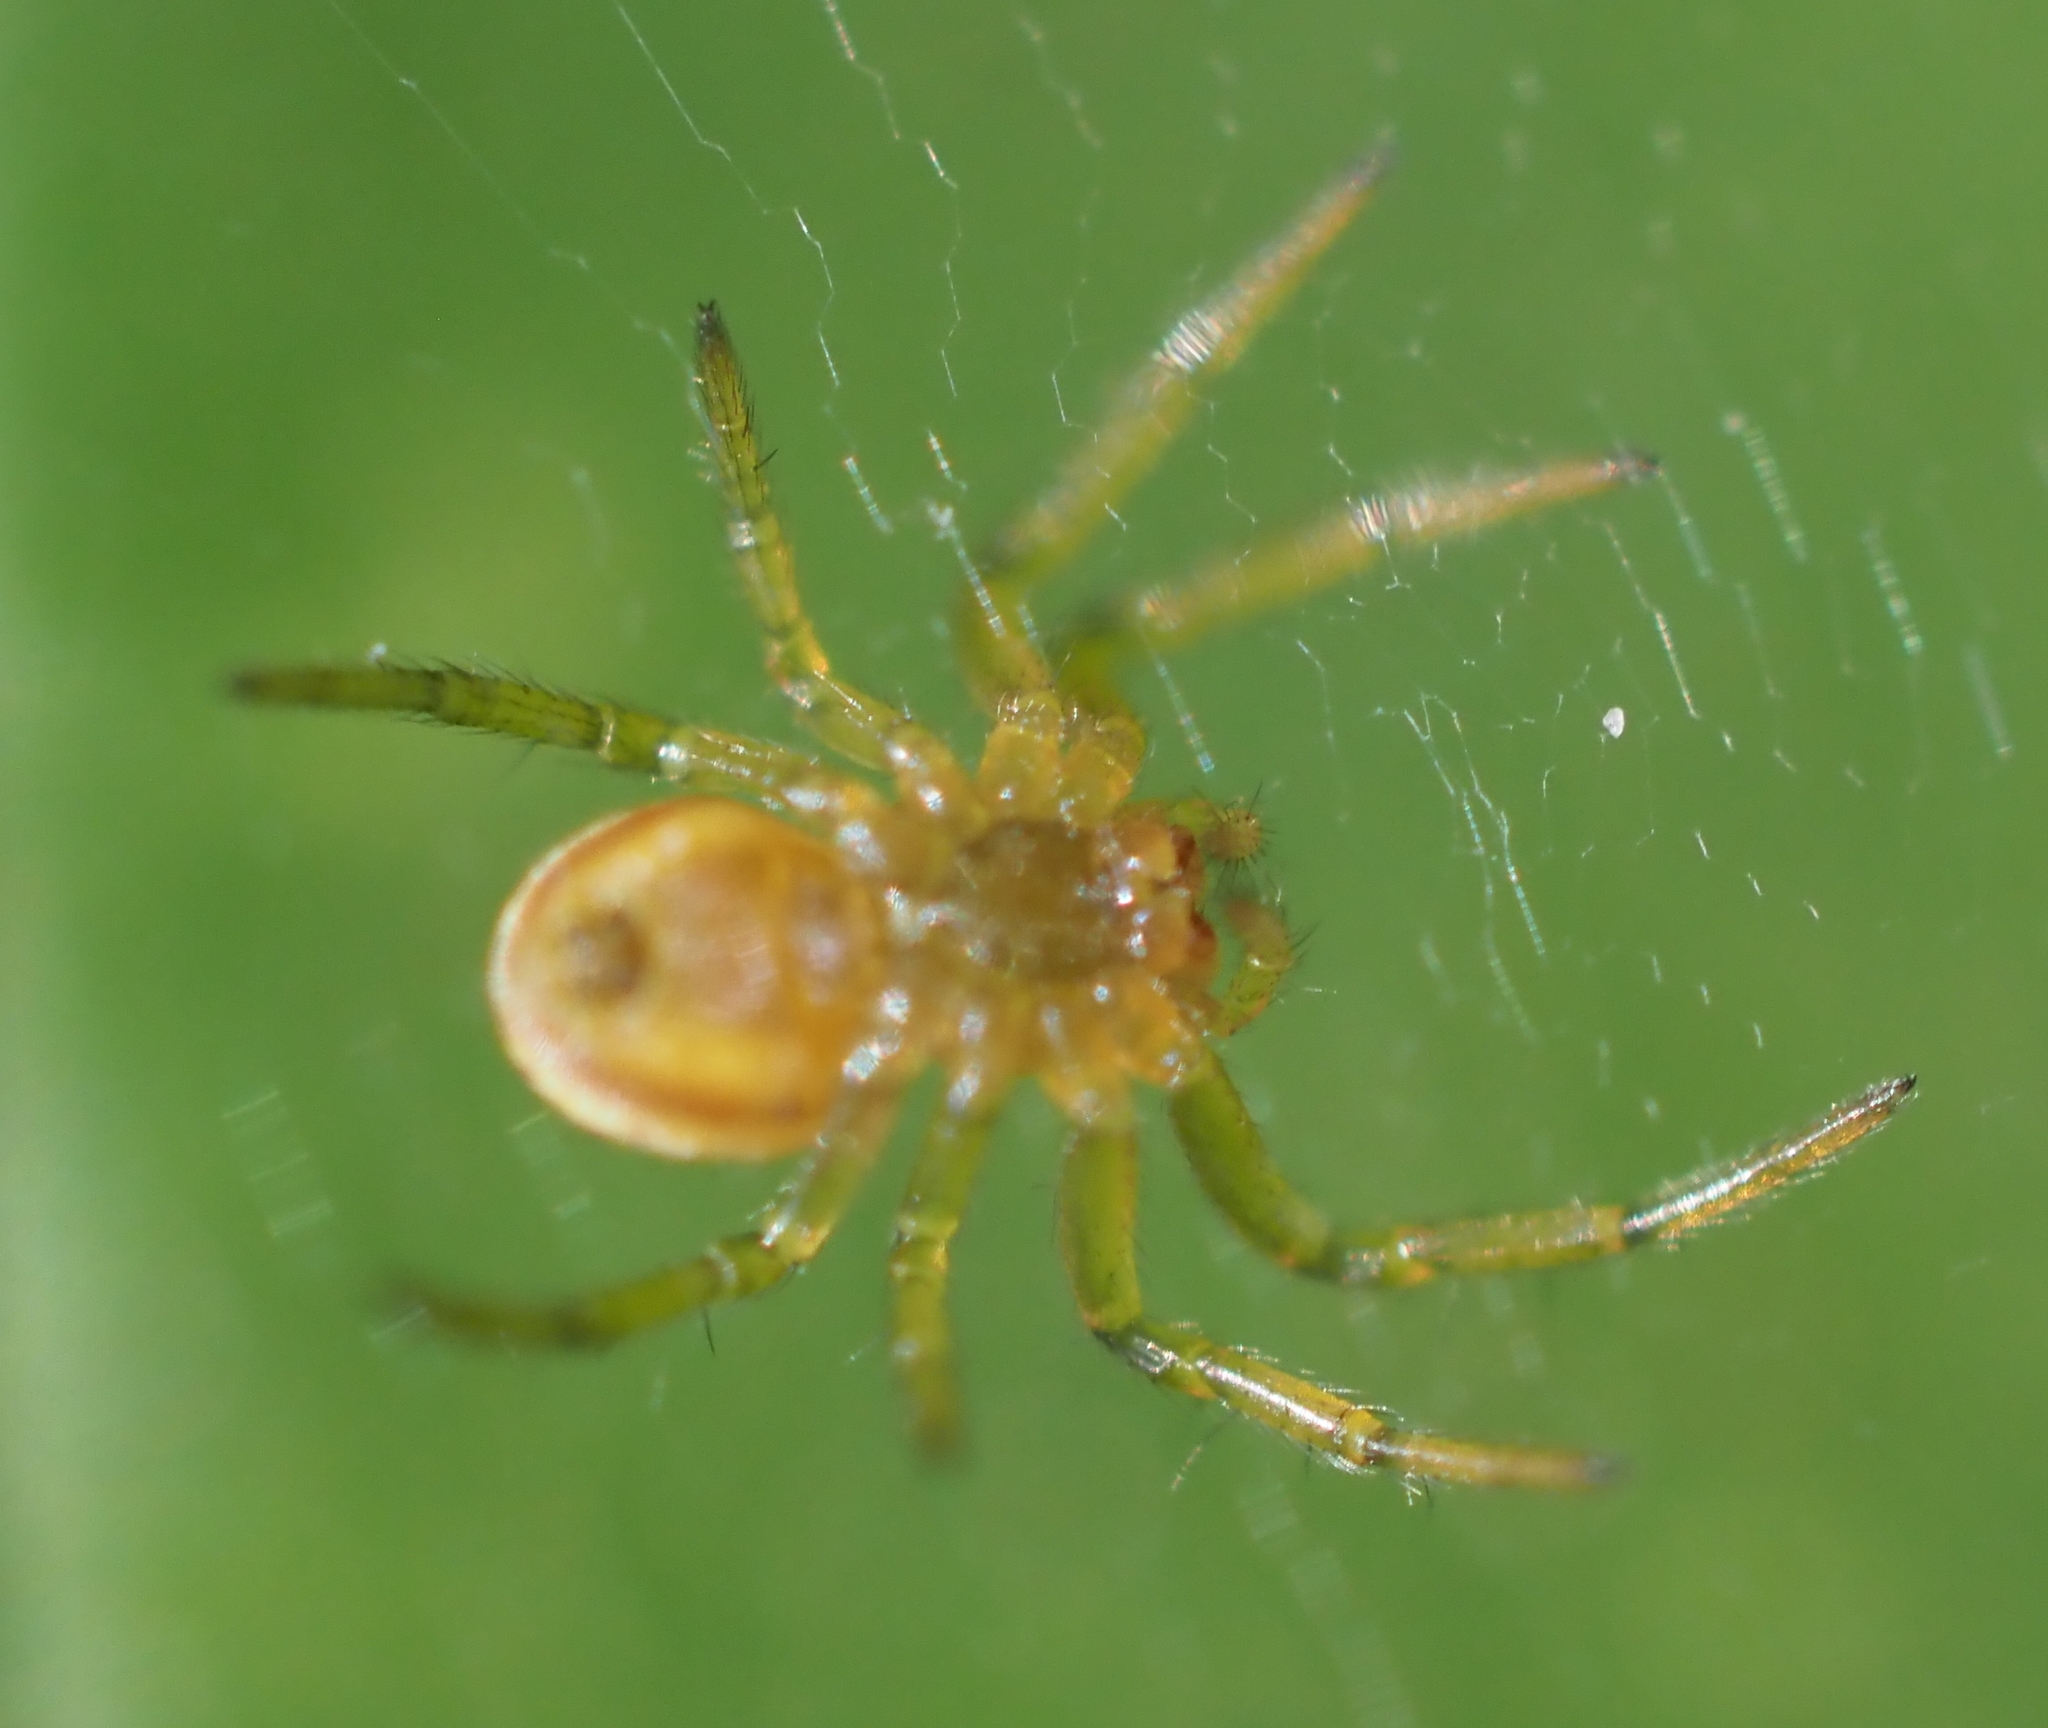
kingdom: Animalia
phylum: Arthropoda
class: Arachnida
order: Araneae
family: Araneidae
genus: Araniella
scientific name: Araniella displicata
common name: Sixspotted orb weaver
